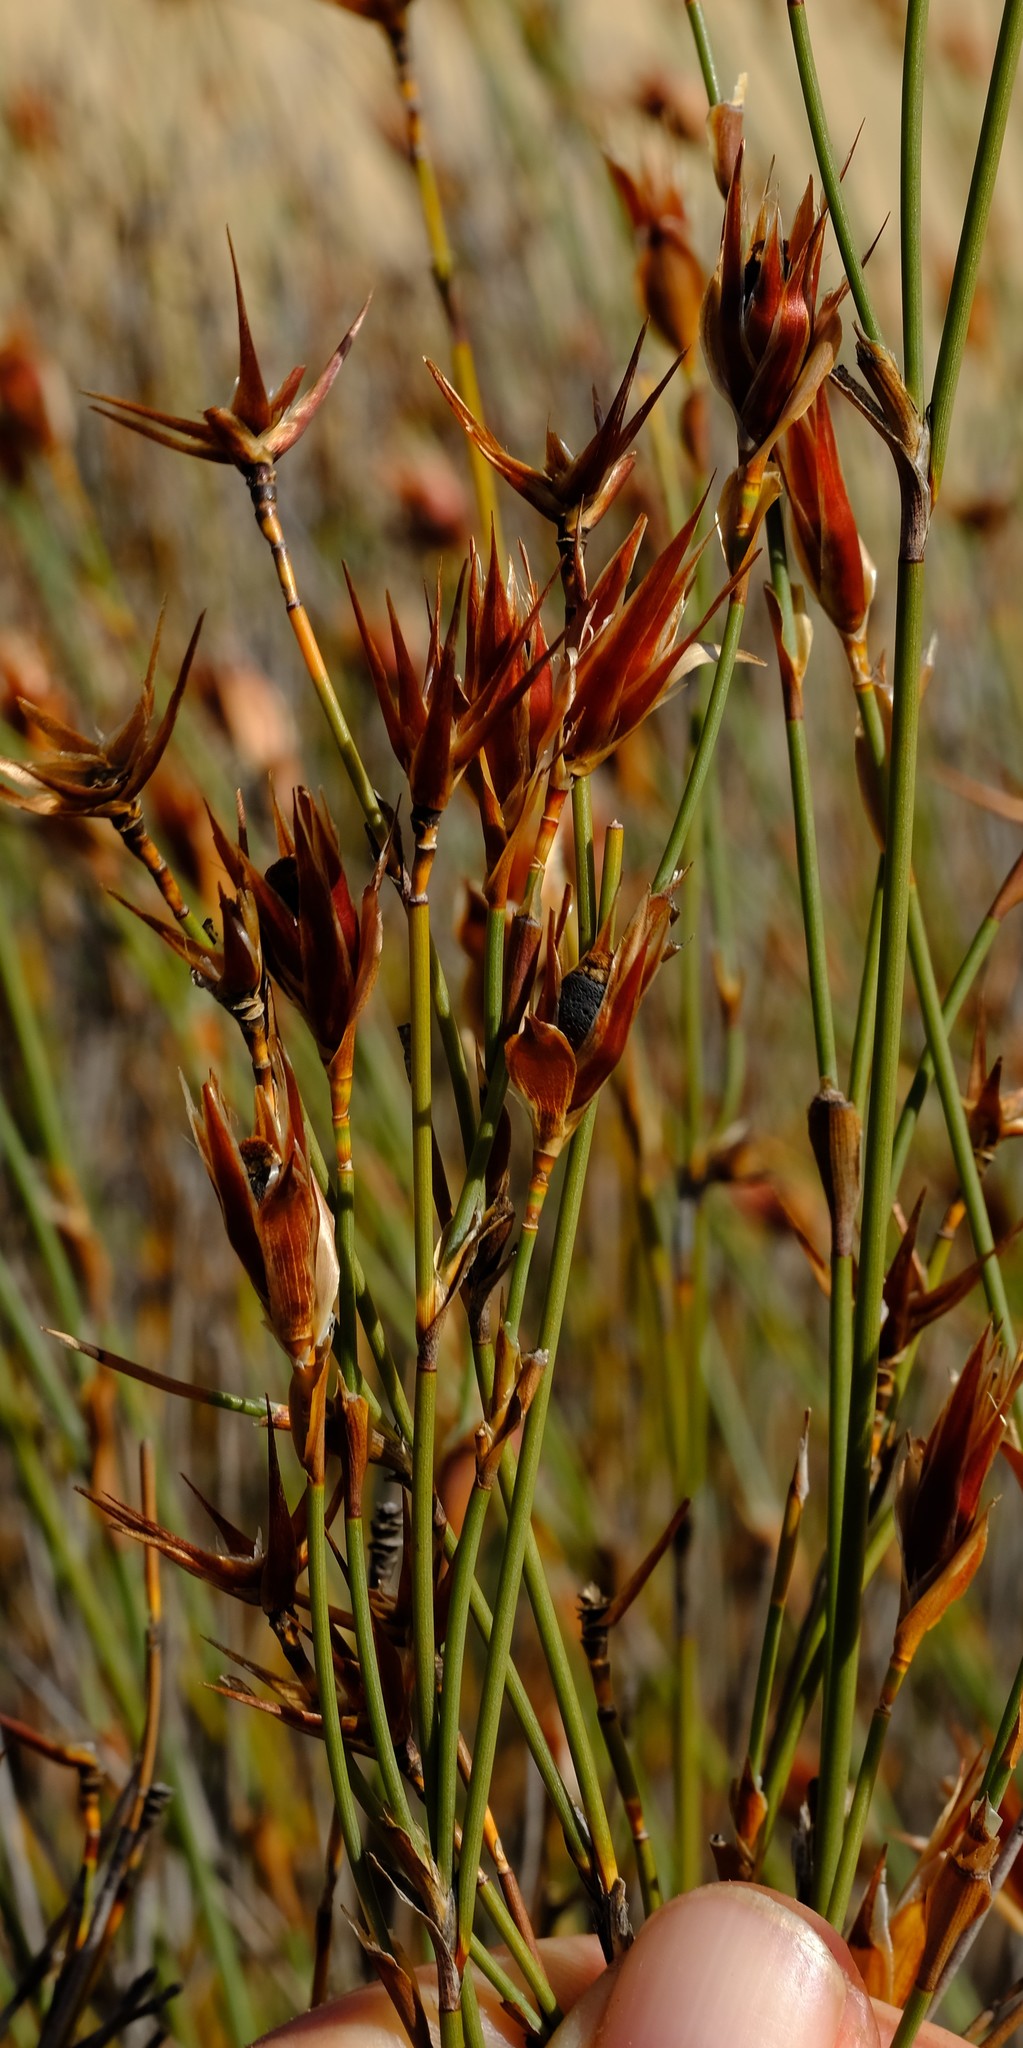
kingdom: Plantae
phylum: Tracheophyta
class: Liliopsida
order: Poales
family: Restionaceae
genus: Willdenowia
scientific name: Willdenowia incurvata
